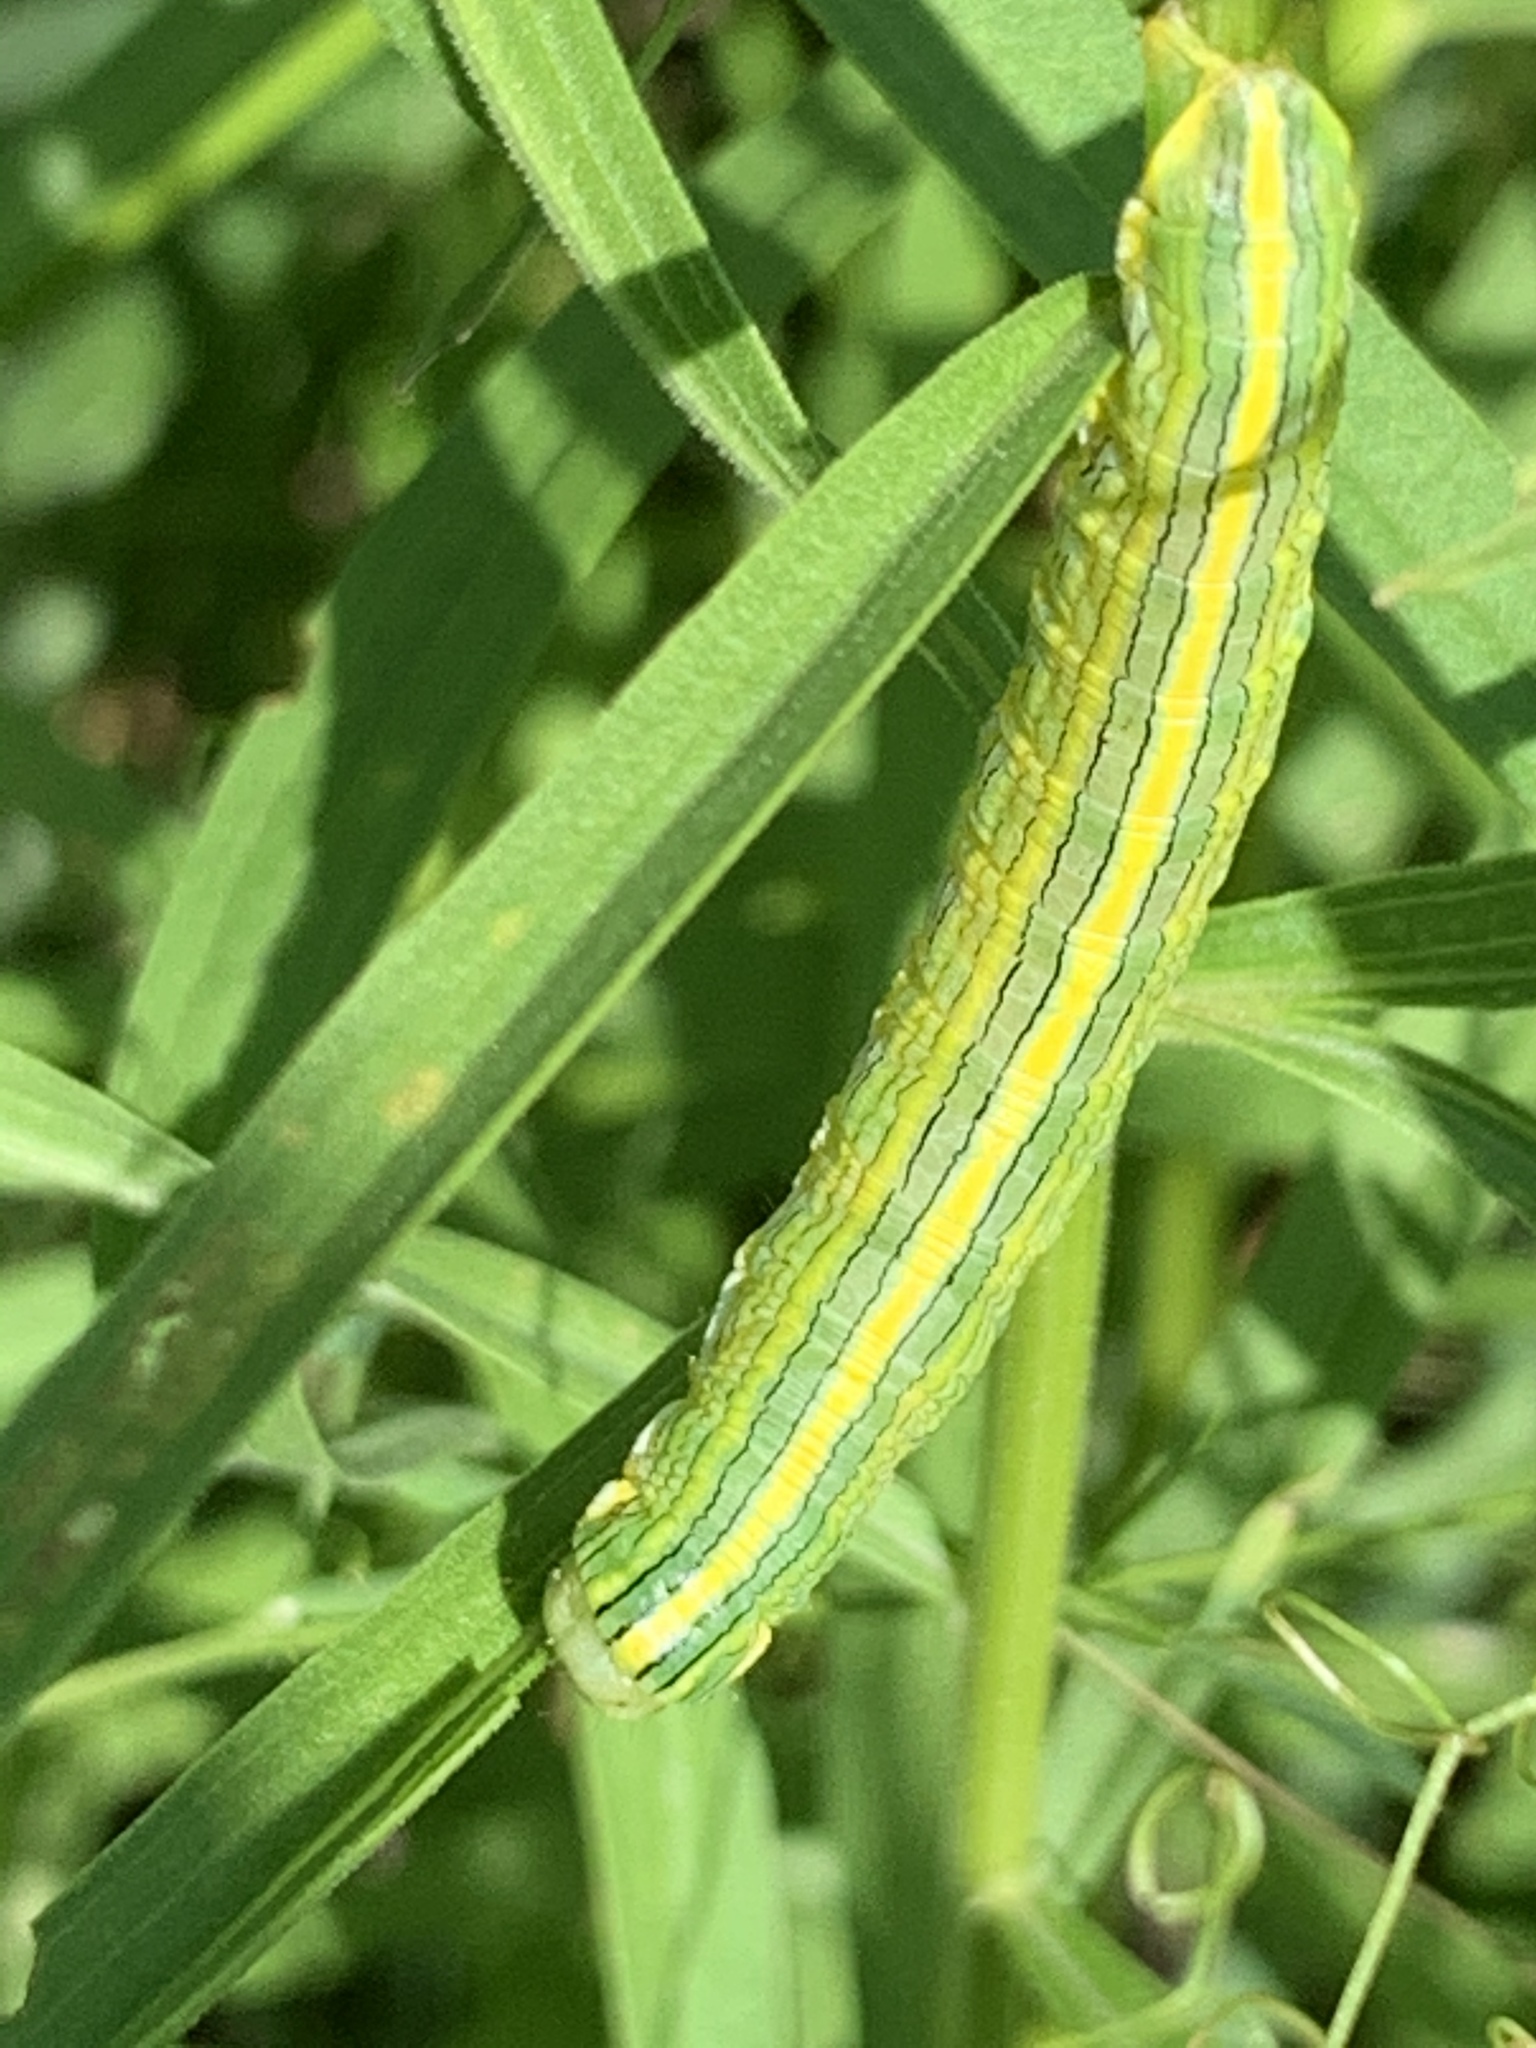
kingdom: Animalia
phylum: Arthropoda
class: Insecta
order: Lepidoptera
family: Noctuidae
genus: Cucullia
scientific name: Cucullia asteroides
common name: Asteroid moth
